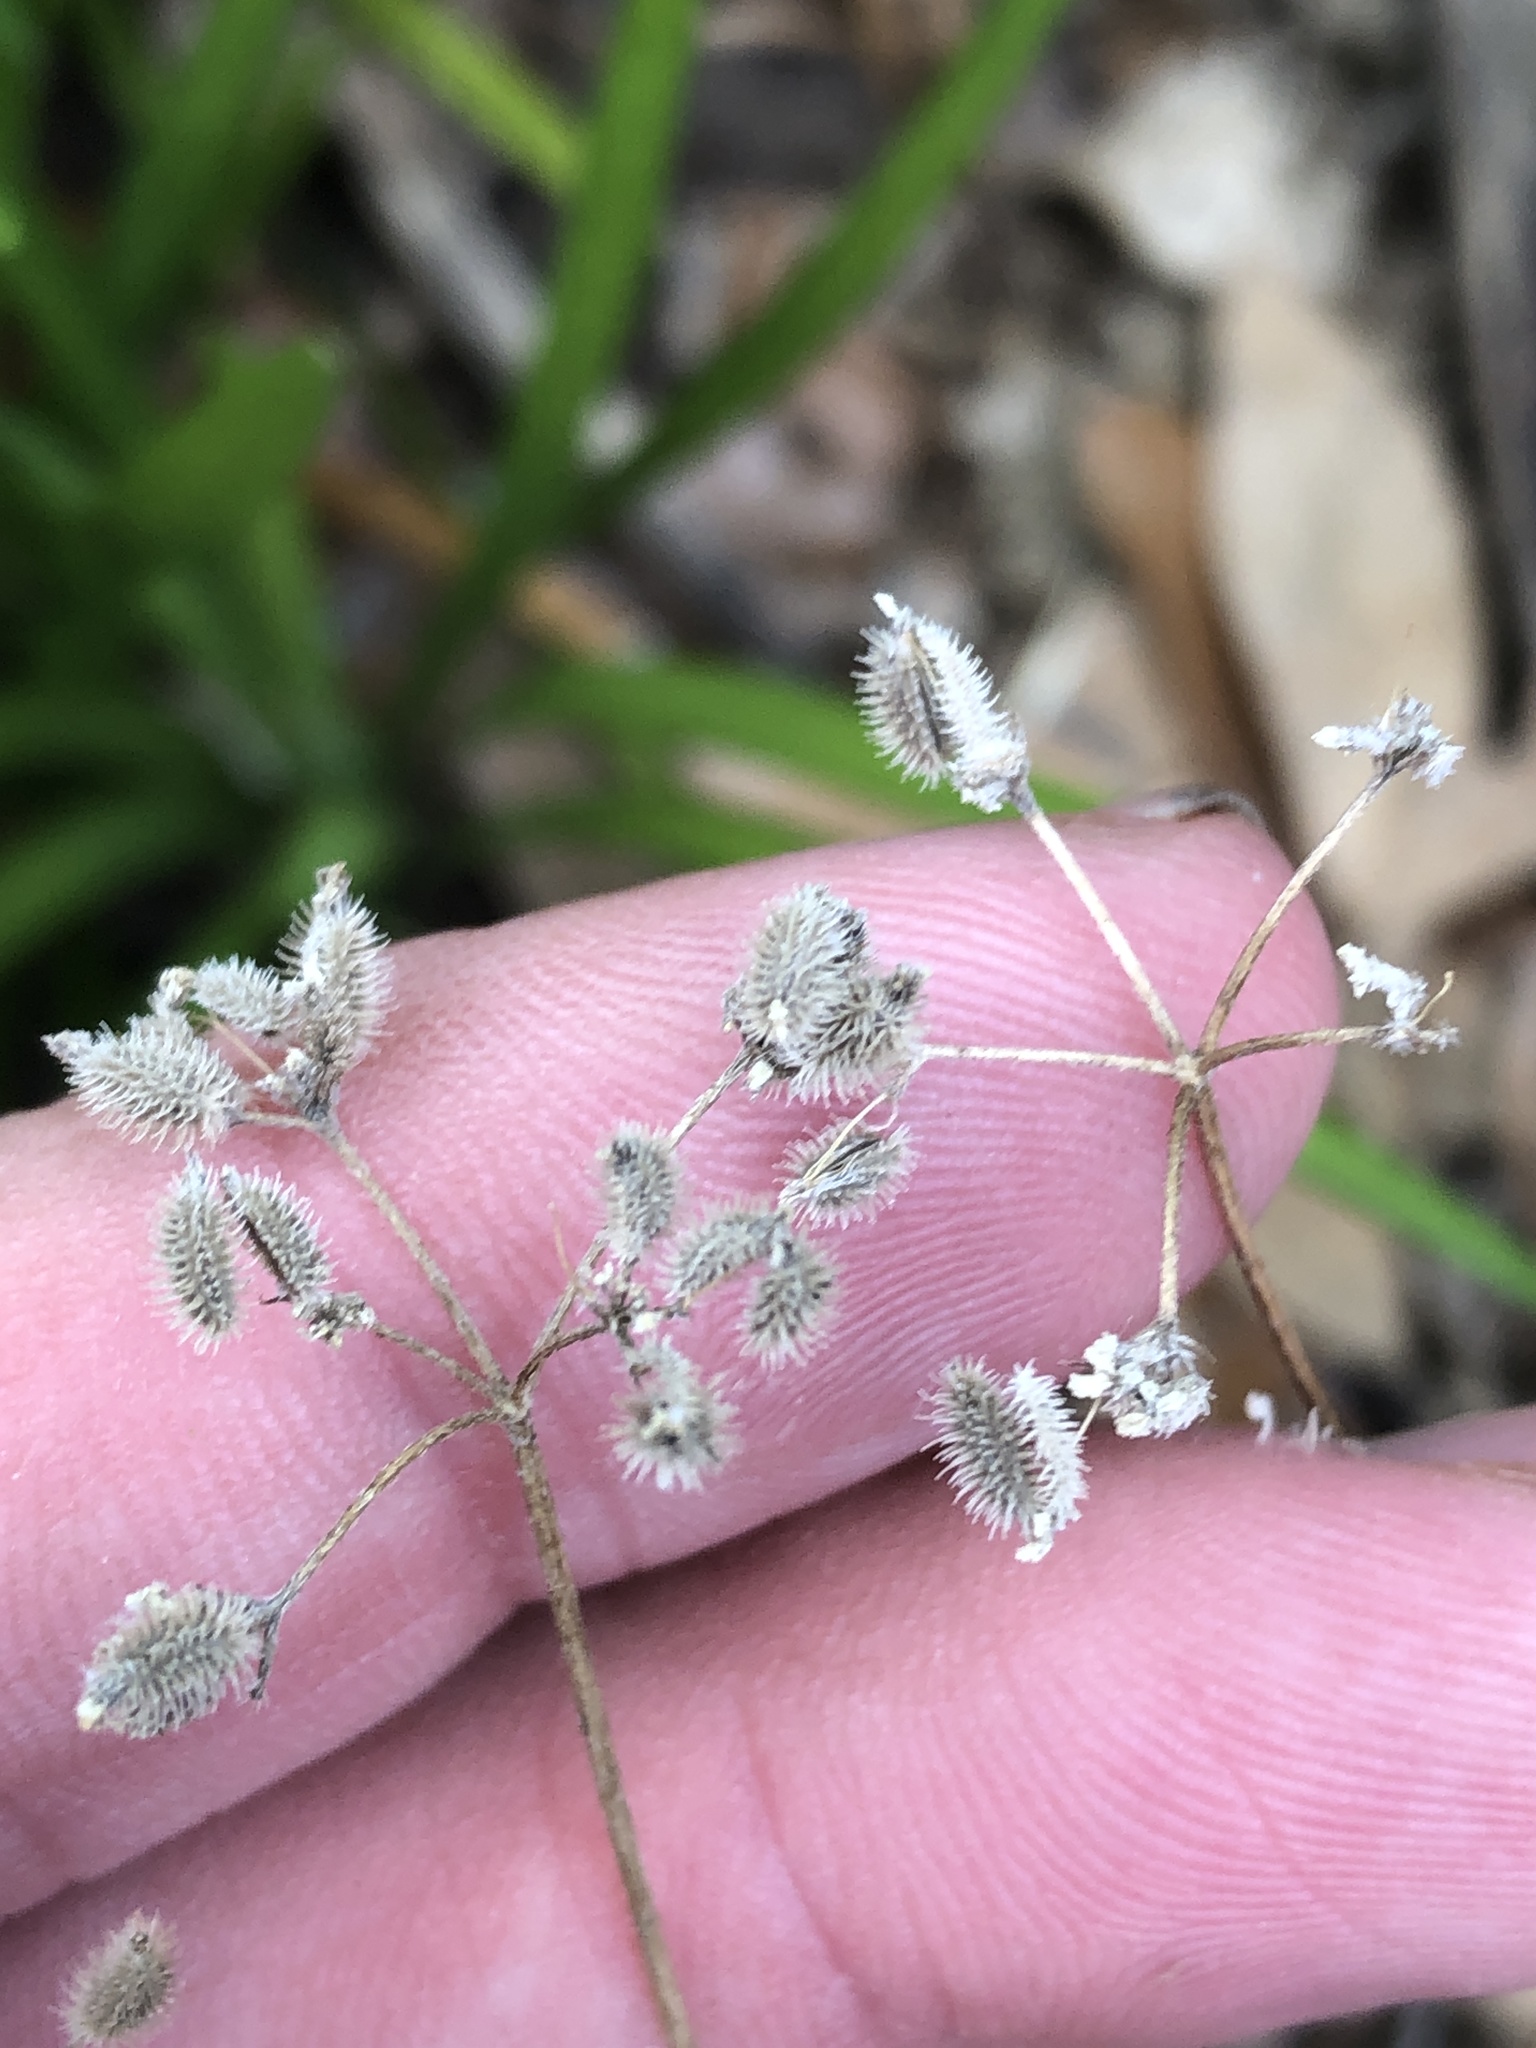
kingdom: Plantae
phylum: Tracheophyta
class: Magnoliopsida
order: Apiales
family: Apiaceae
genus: Torilis
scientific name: Torilis arvensis
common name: Spreading hedge-parsley
